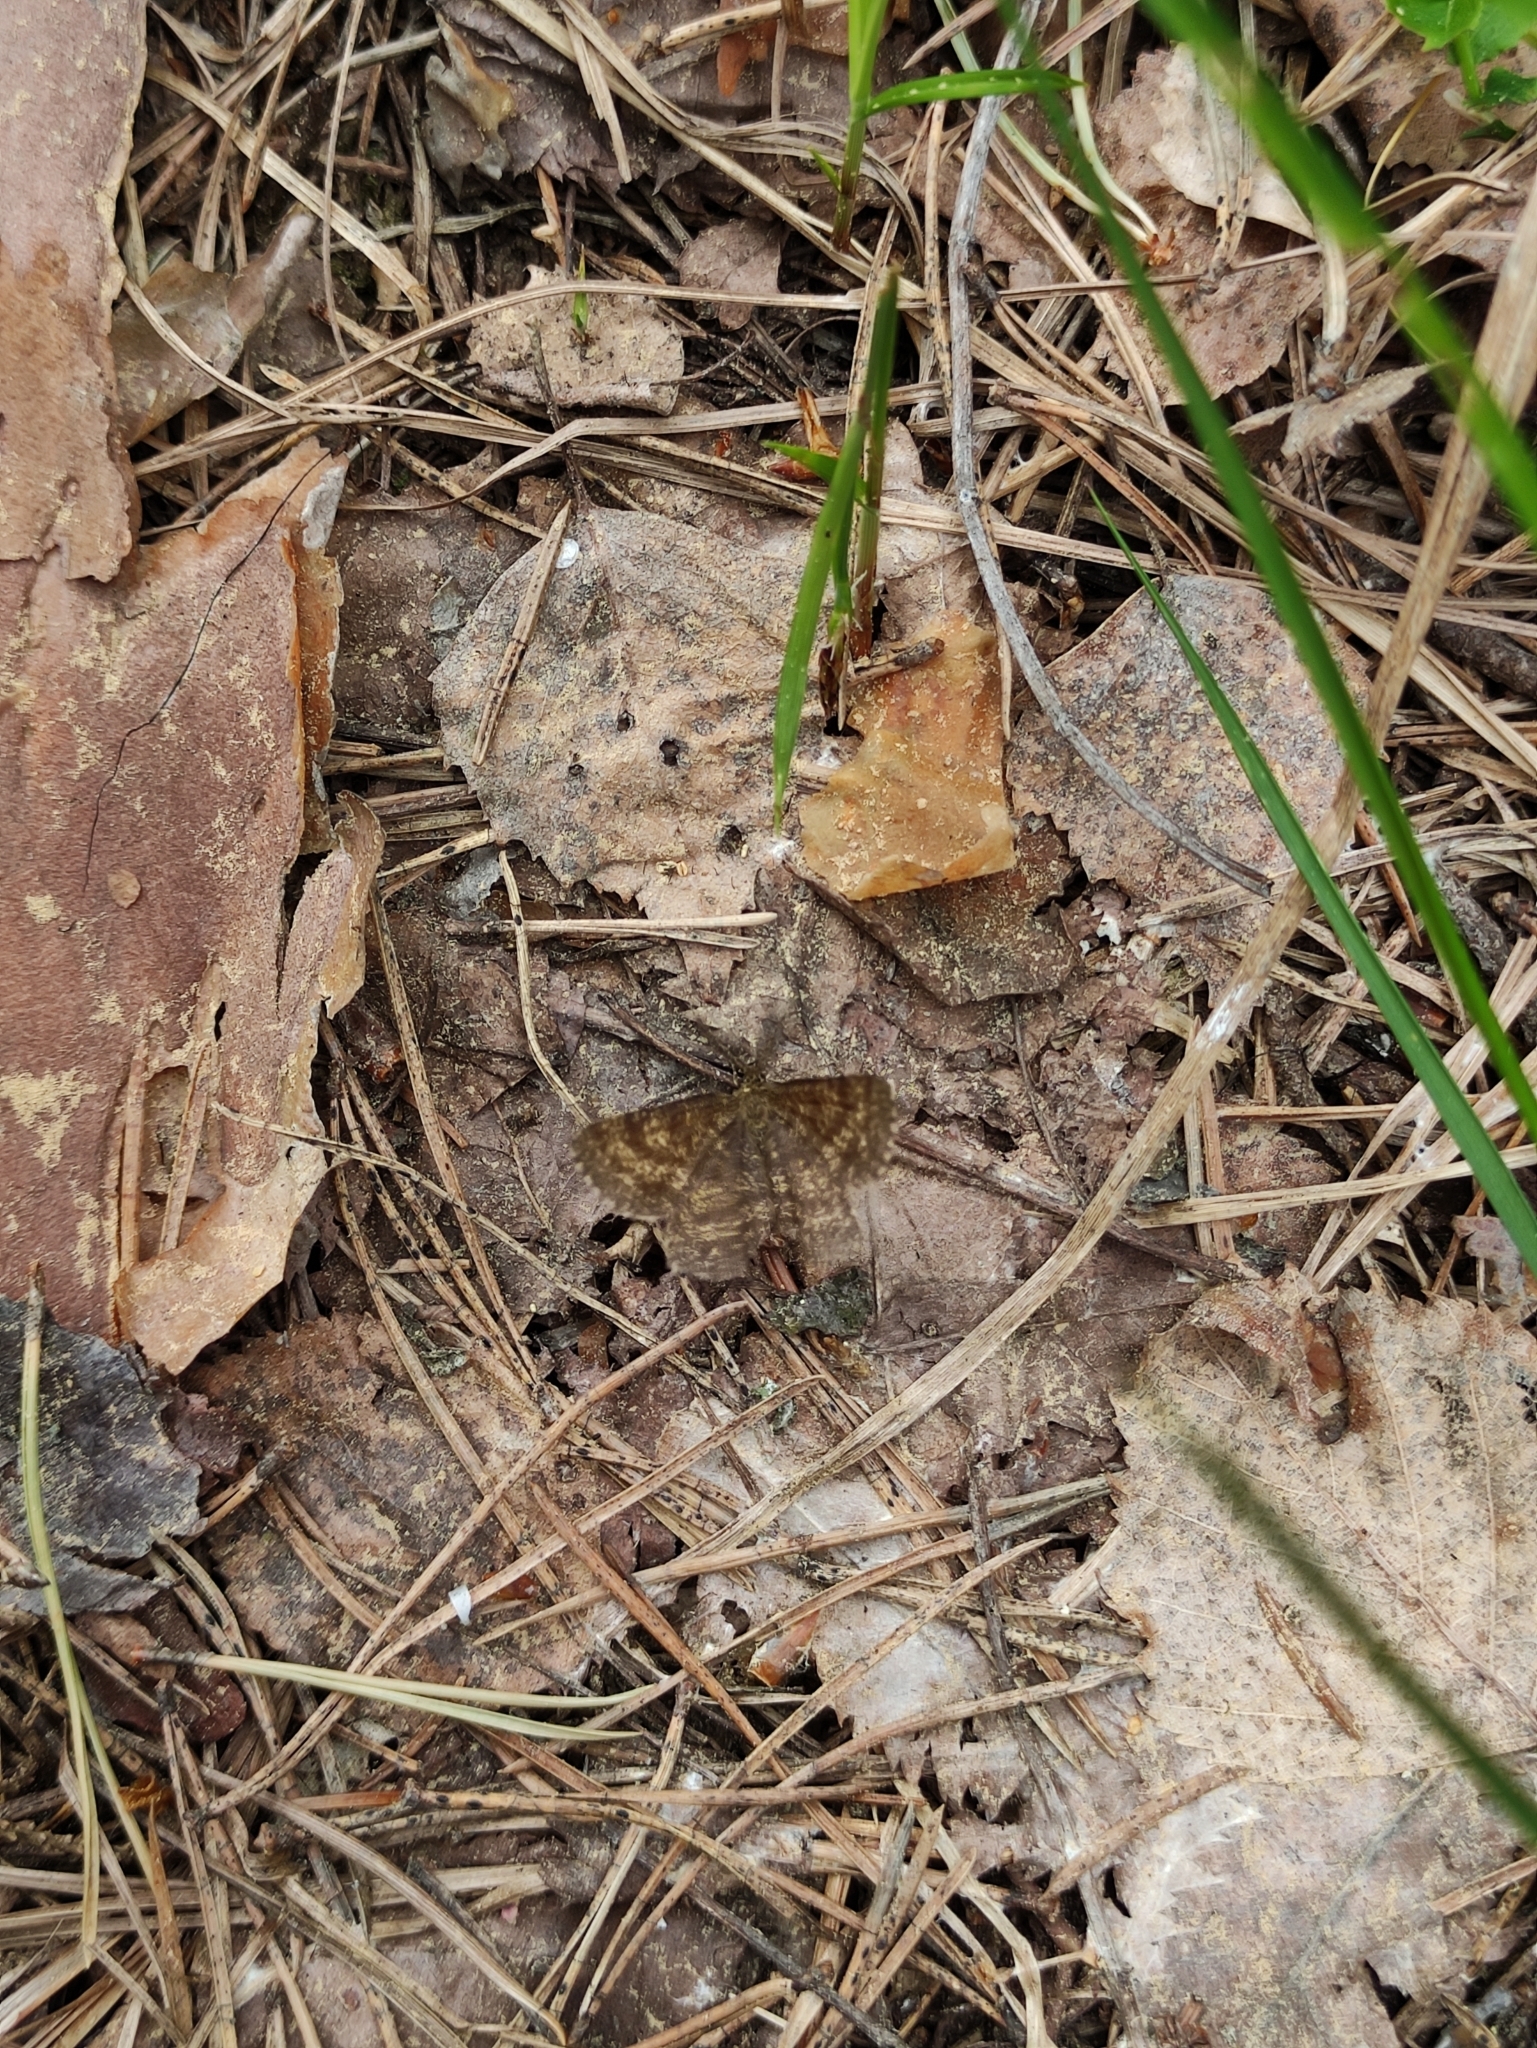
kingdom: Animalia
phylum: Arthropoda
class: Insecta
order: Lepidoptera
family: Geometridae
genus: Ematurga
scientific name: Ematurga atomaria
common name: Common heath
